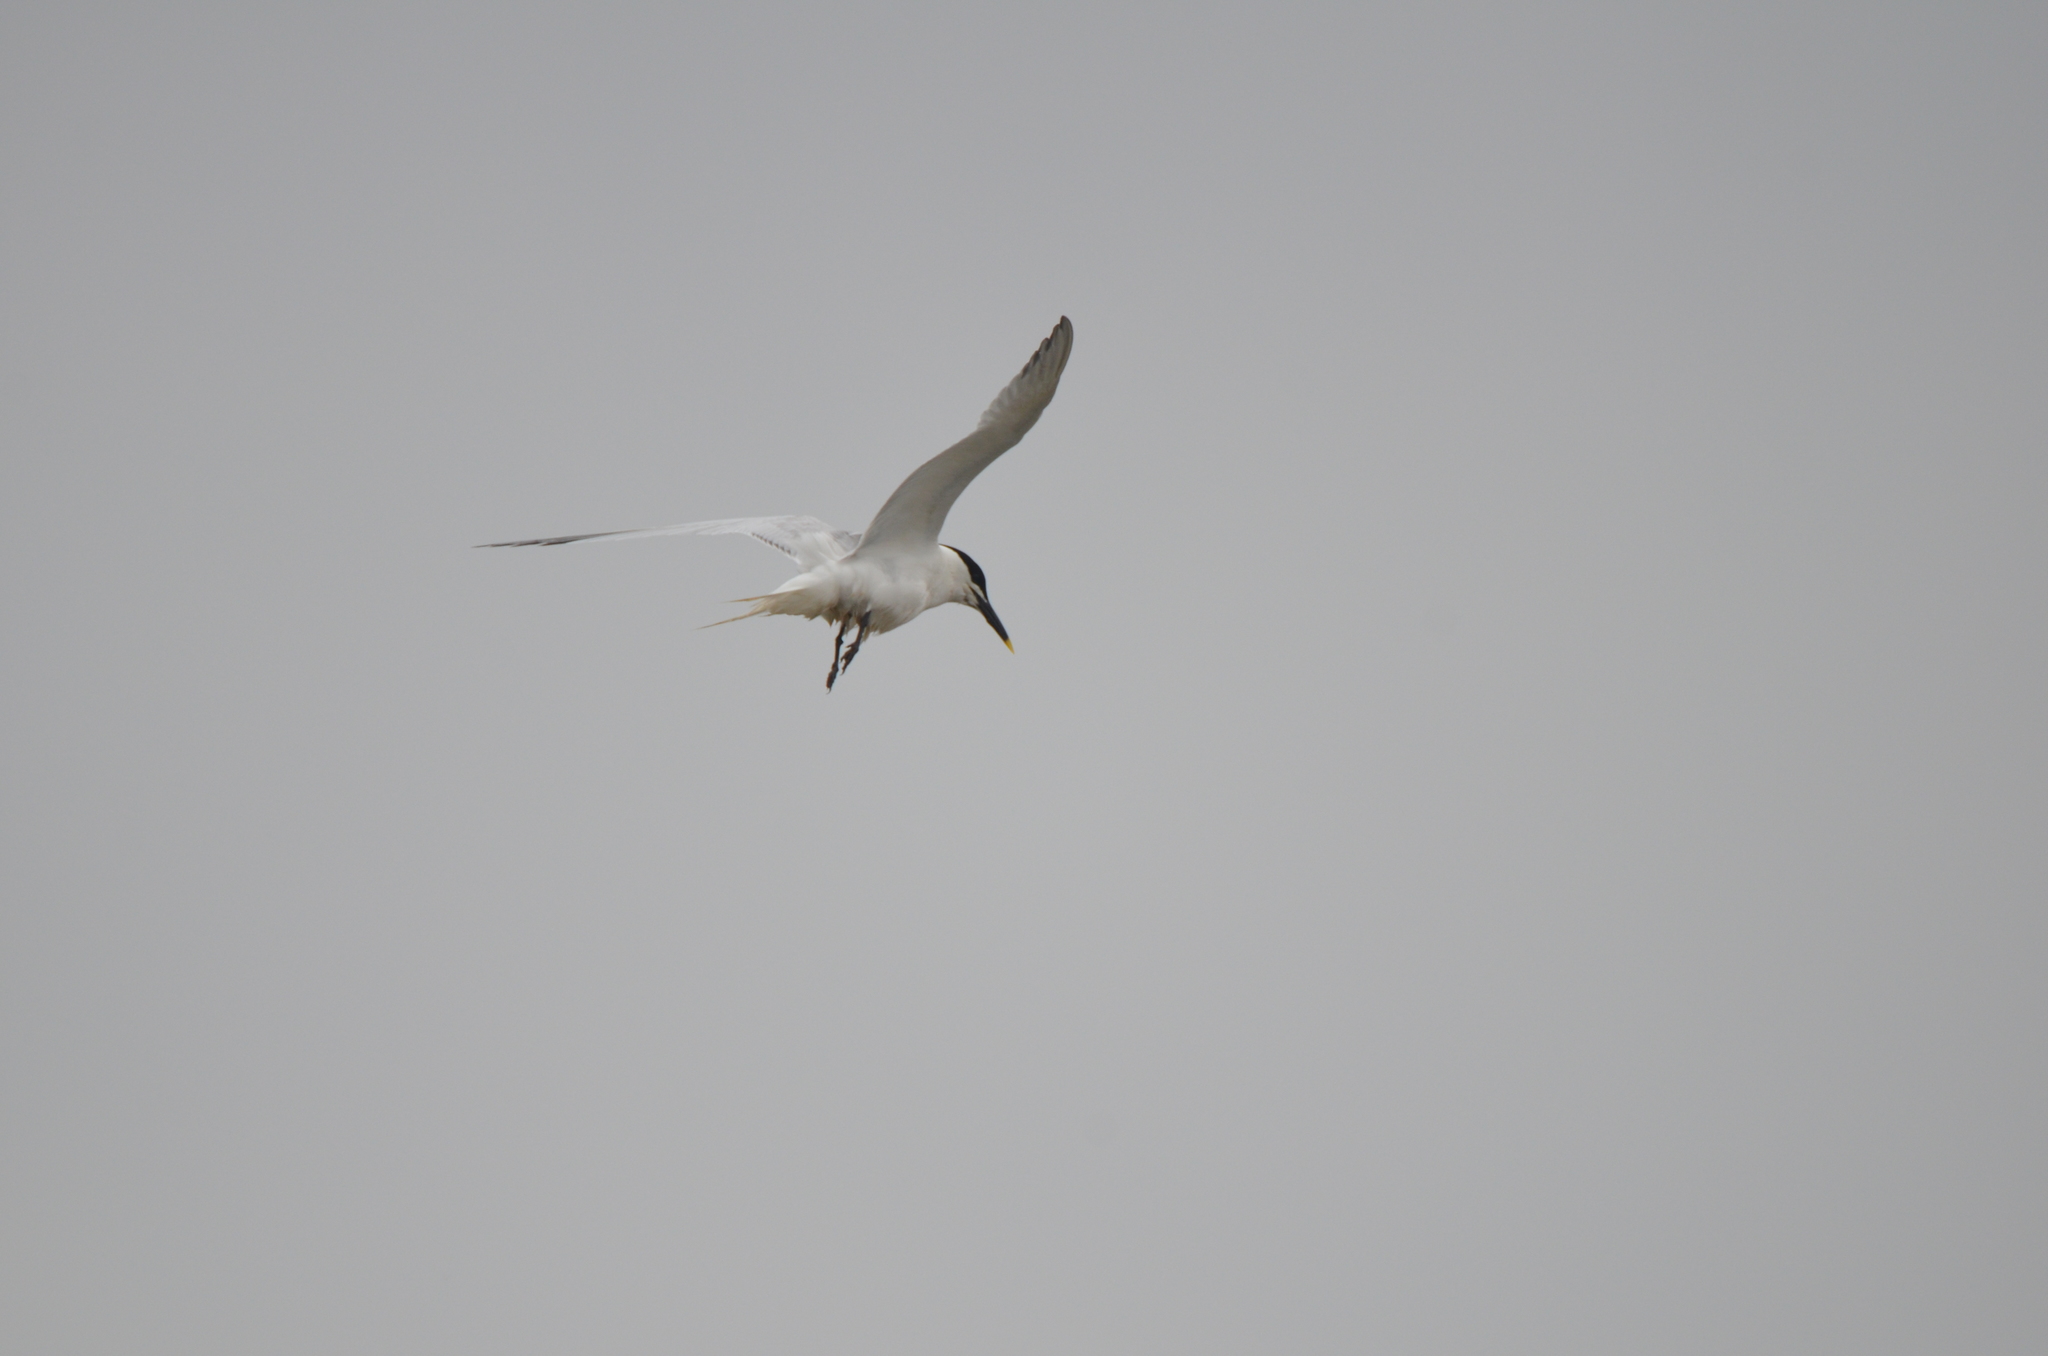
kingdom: Animalia
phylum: Chordata
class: Aves
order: Charadriiformes
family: Laridae
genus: Thalasseus
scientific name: Thalasseus sandvicensis
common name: Sandwich tern
